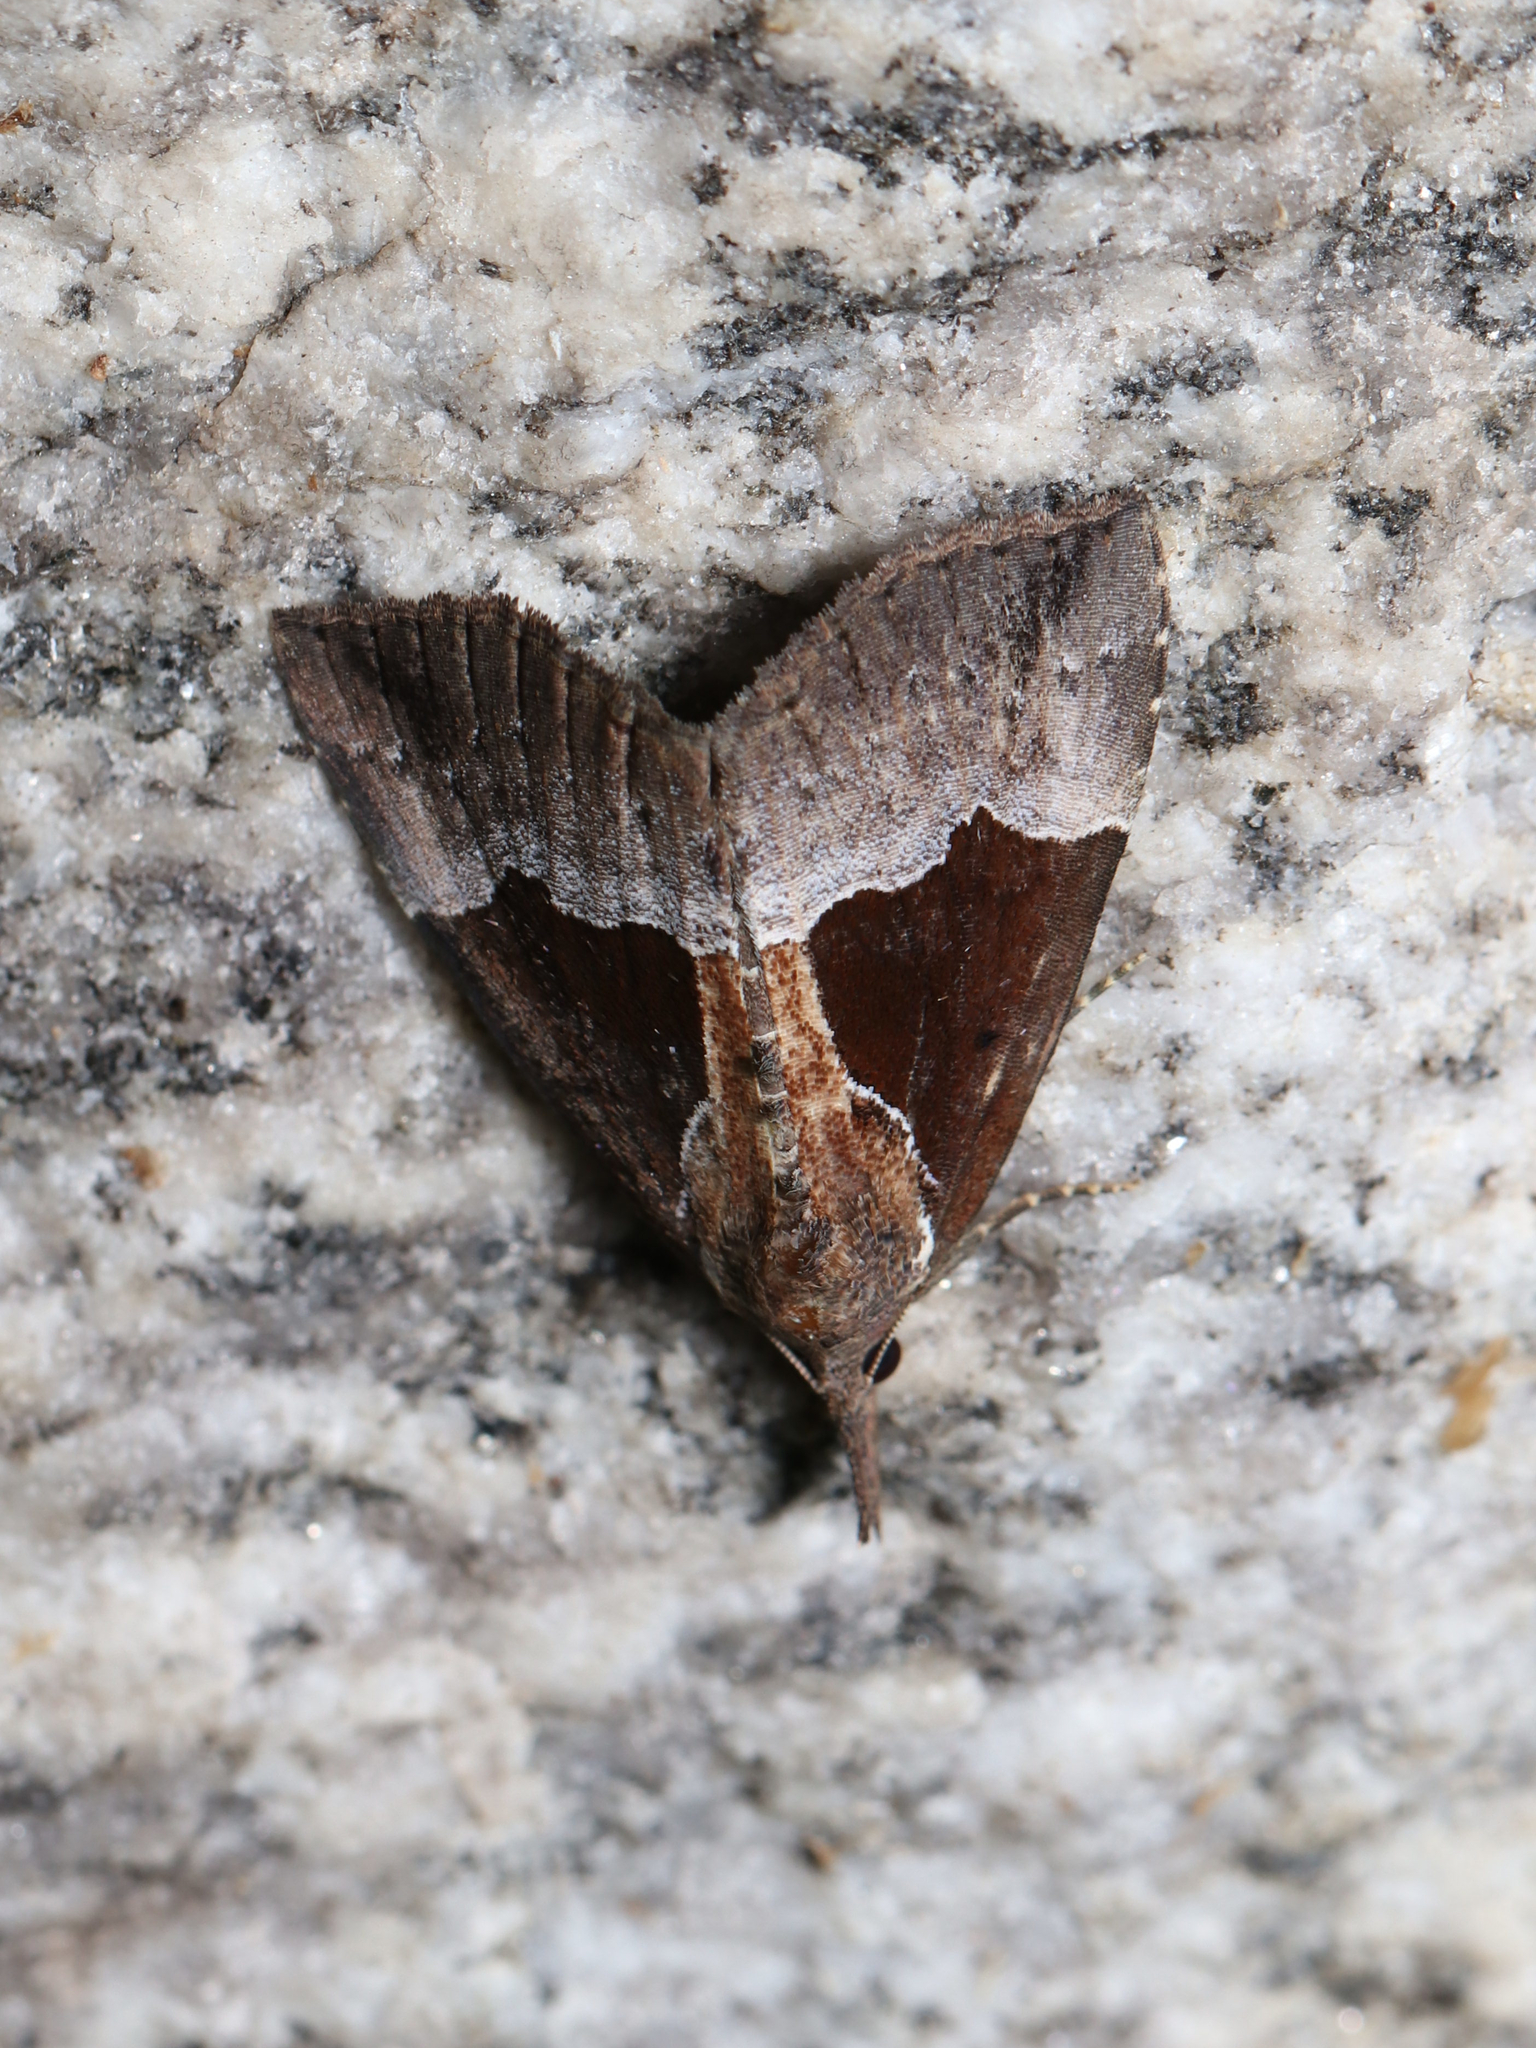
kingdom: Animalia
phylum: Arthropoda
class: Insecta
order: Lepidoptera
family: Erebidae
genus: Hypena
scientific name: Hypena bijugalis
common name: Dimorphic bomolocha moth
